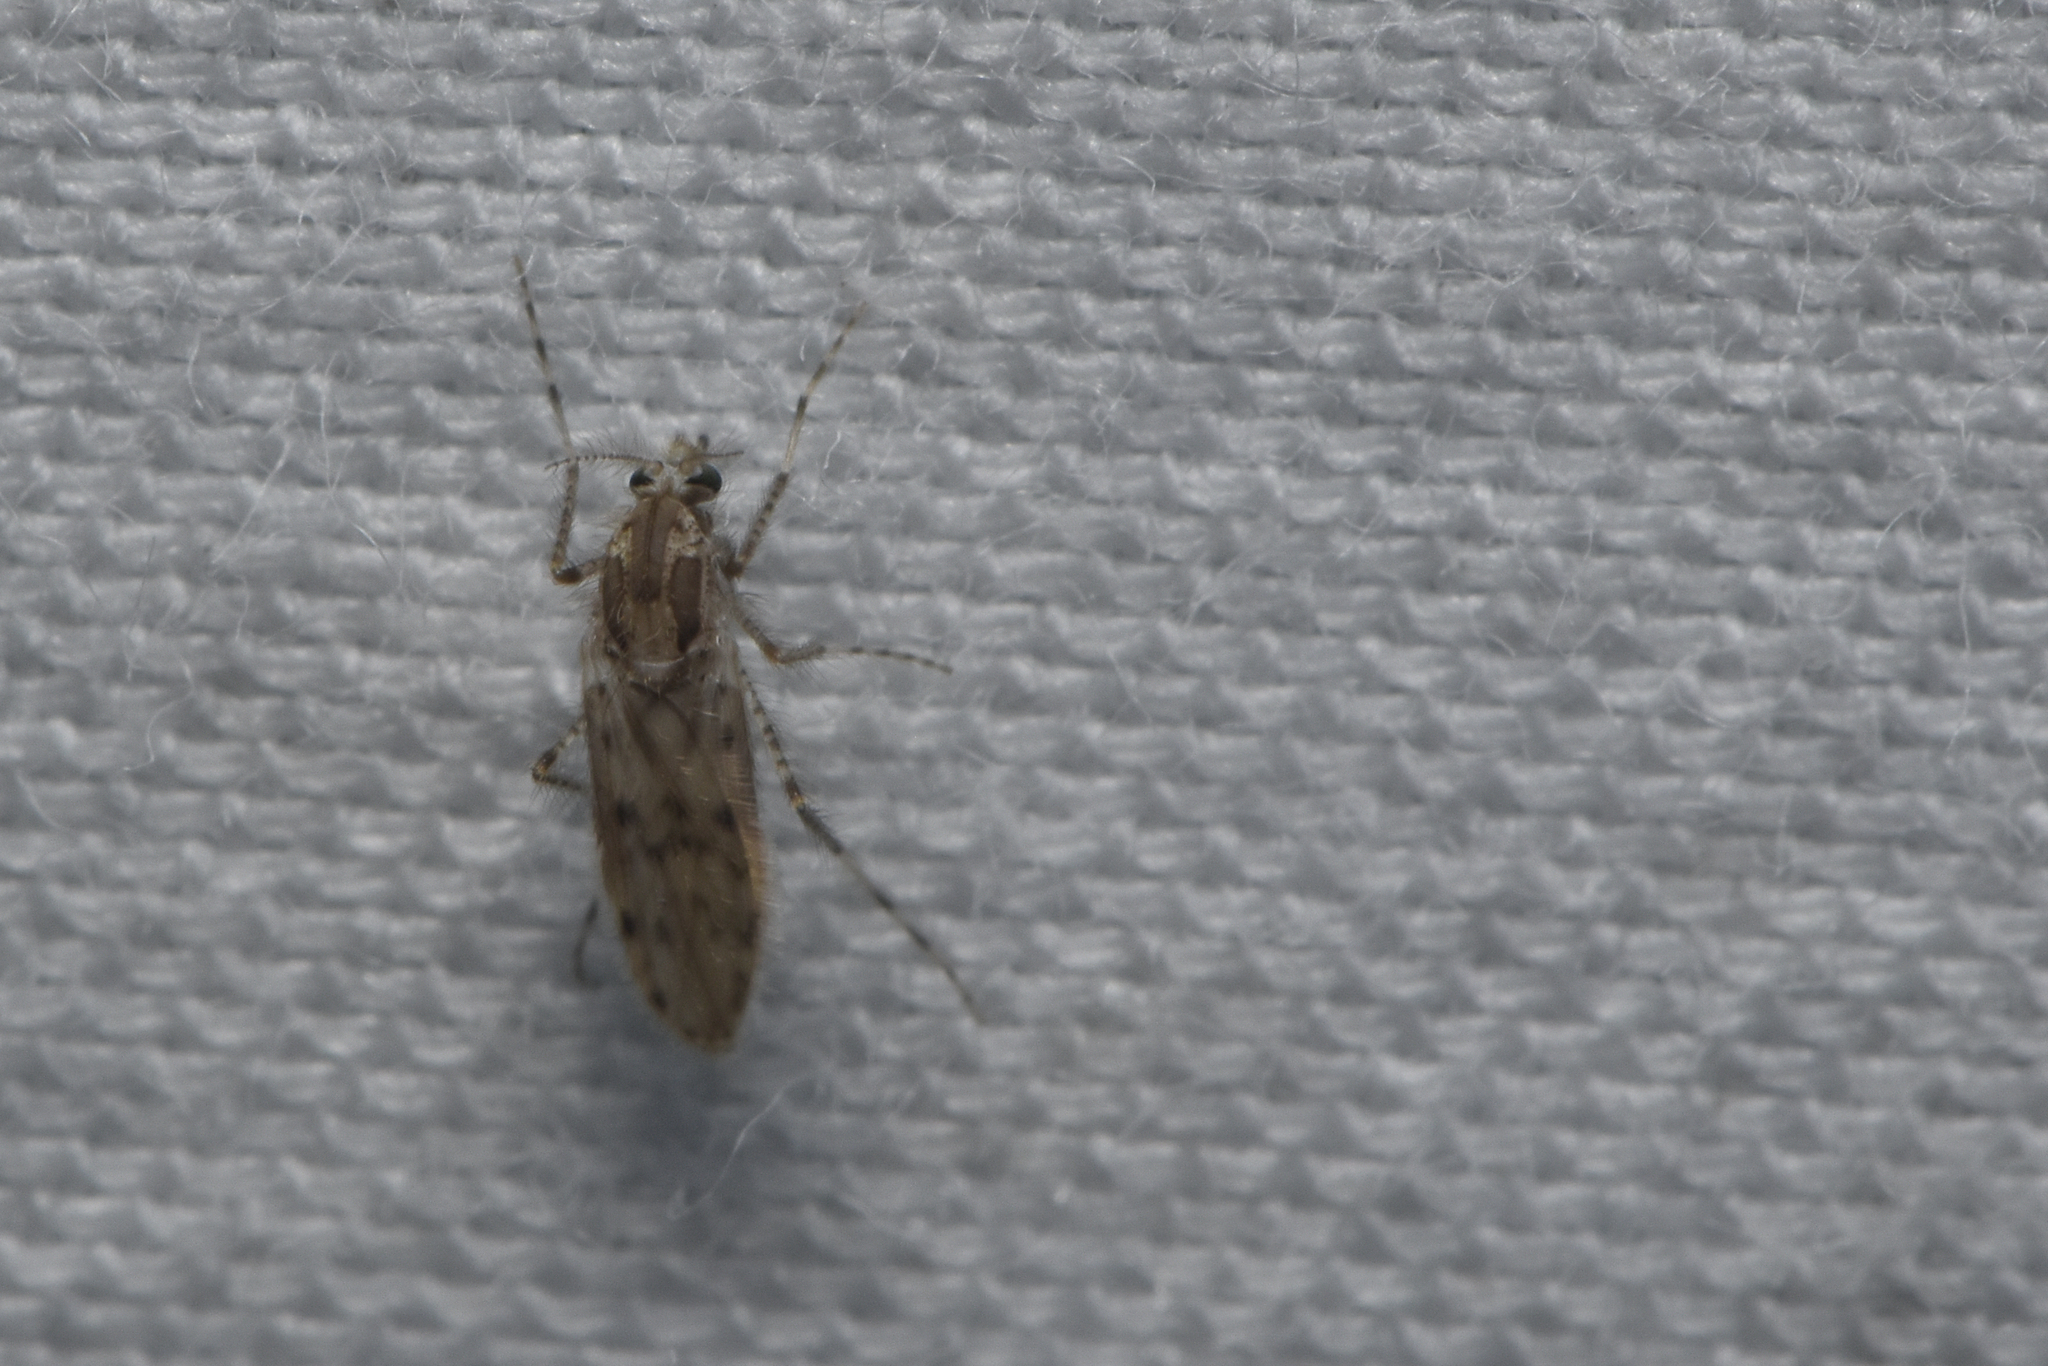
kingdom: Animalia
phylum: Arthropoda
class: Insecta
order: Diptera
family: Chaoboridae
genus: Chaoborus
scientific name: Chaoborus punctipennis
